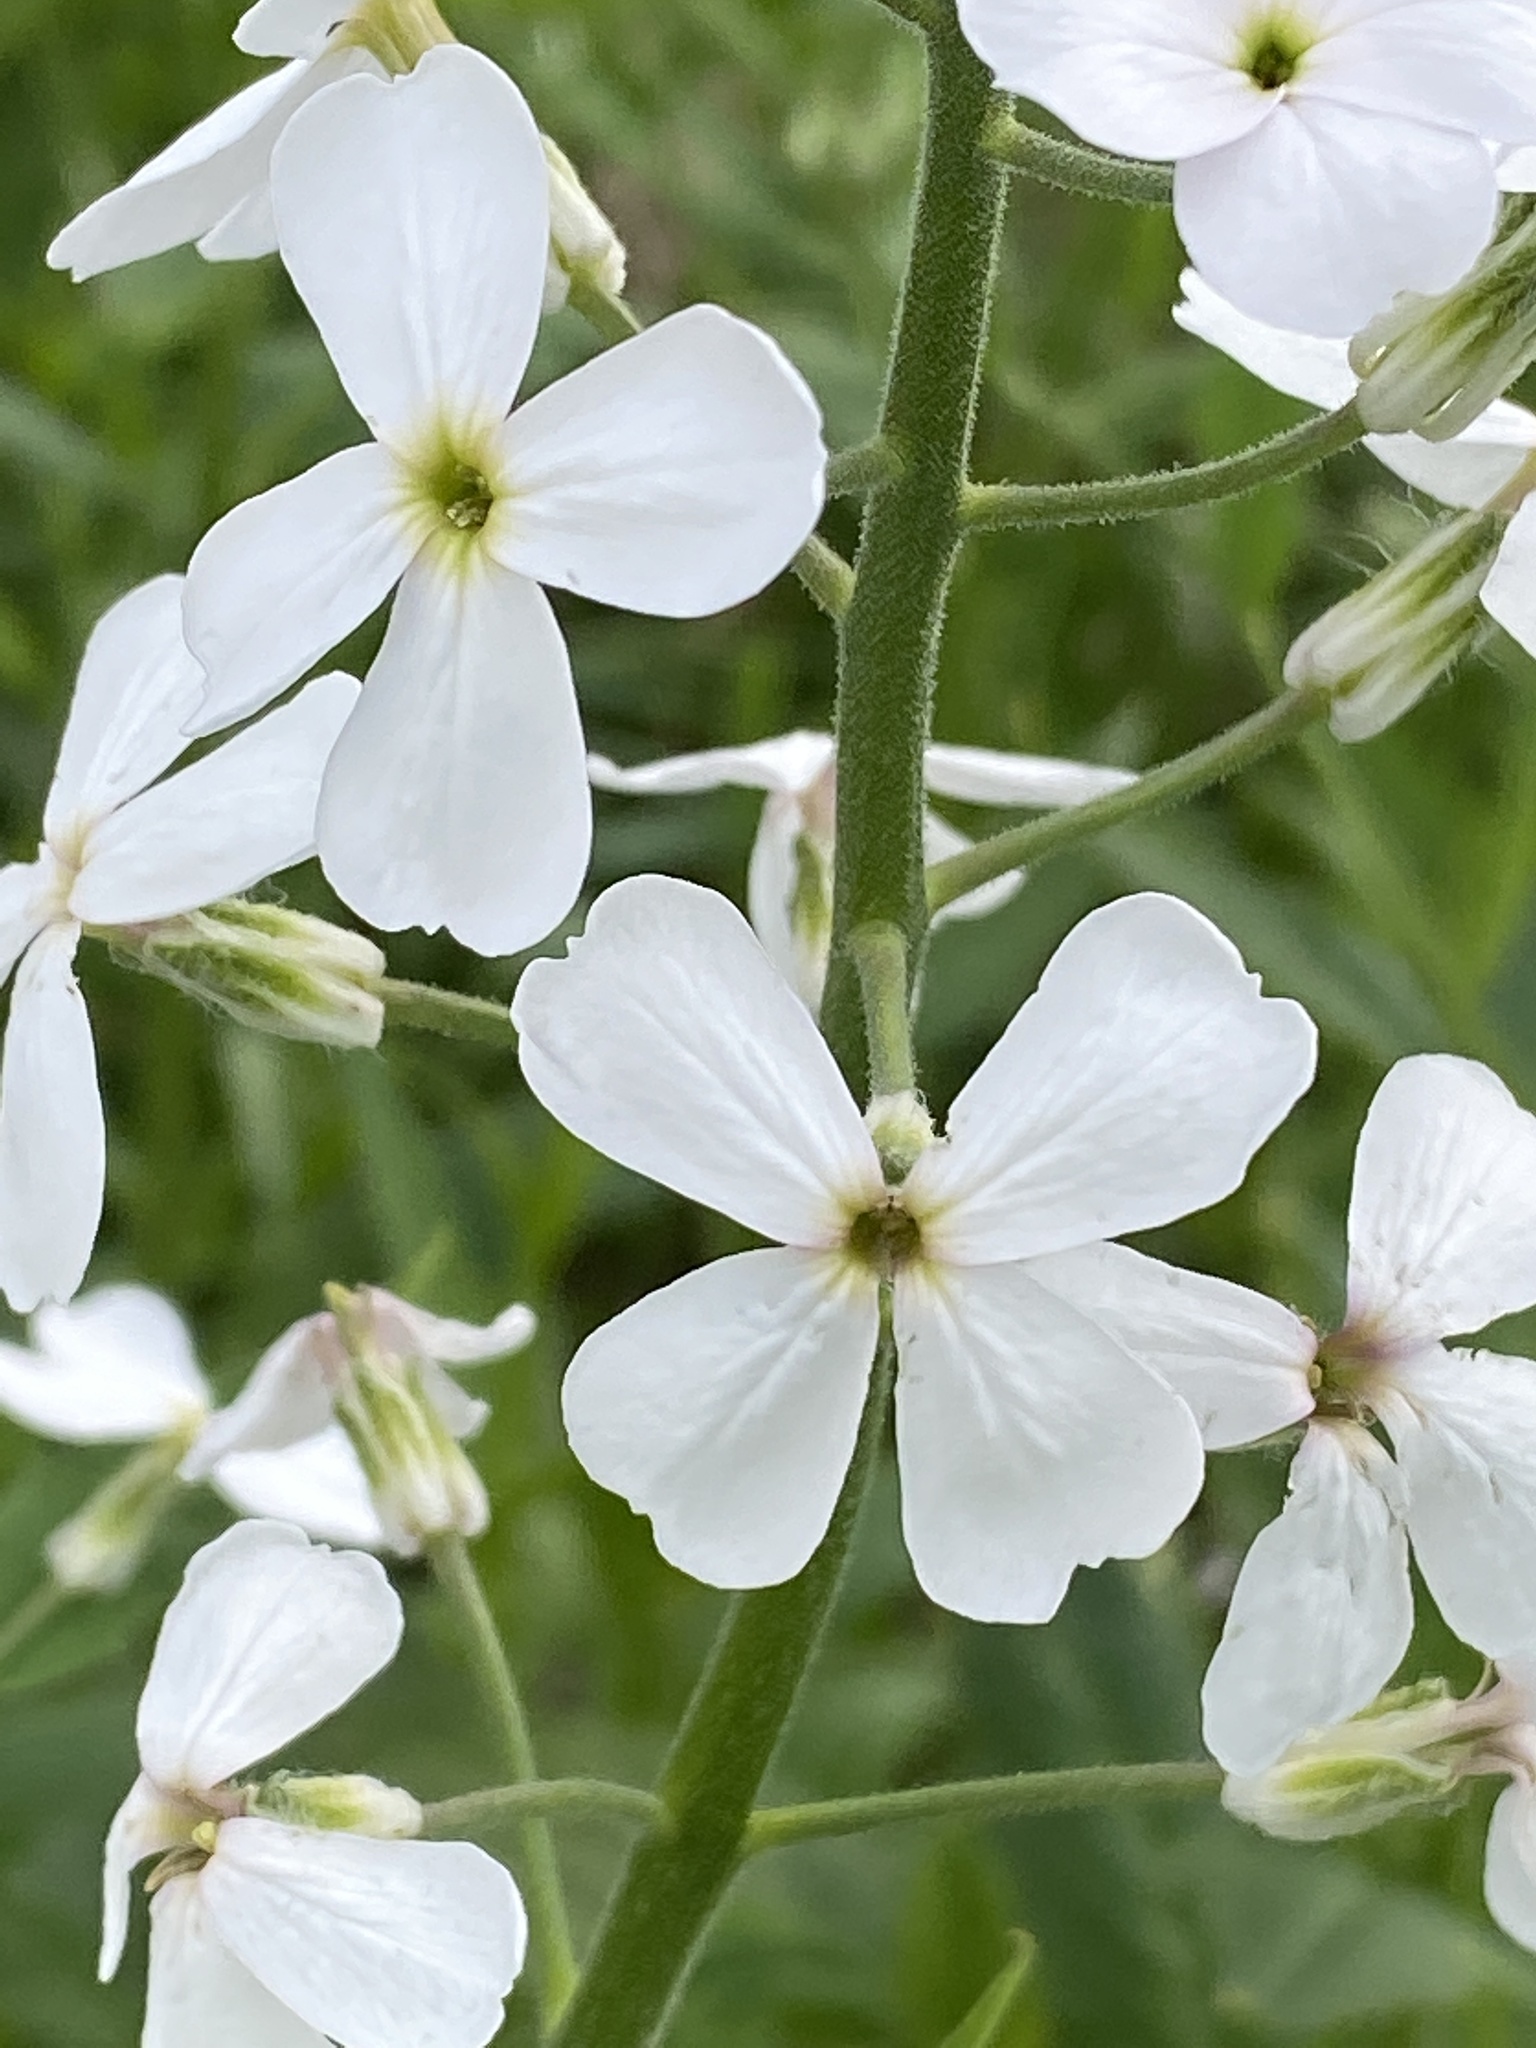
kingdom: Plantae
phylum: Tracheophyta
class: Magnoliopsida
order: Brassicales
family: Brassicaceae
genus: Cardamine
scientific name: Cardamine bulbosa
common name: Spring cress
